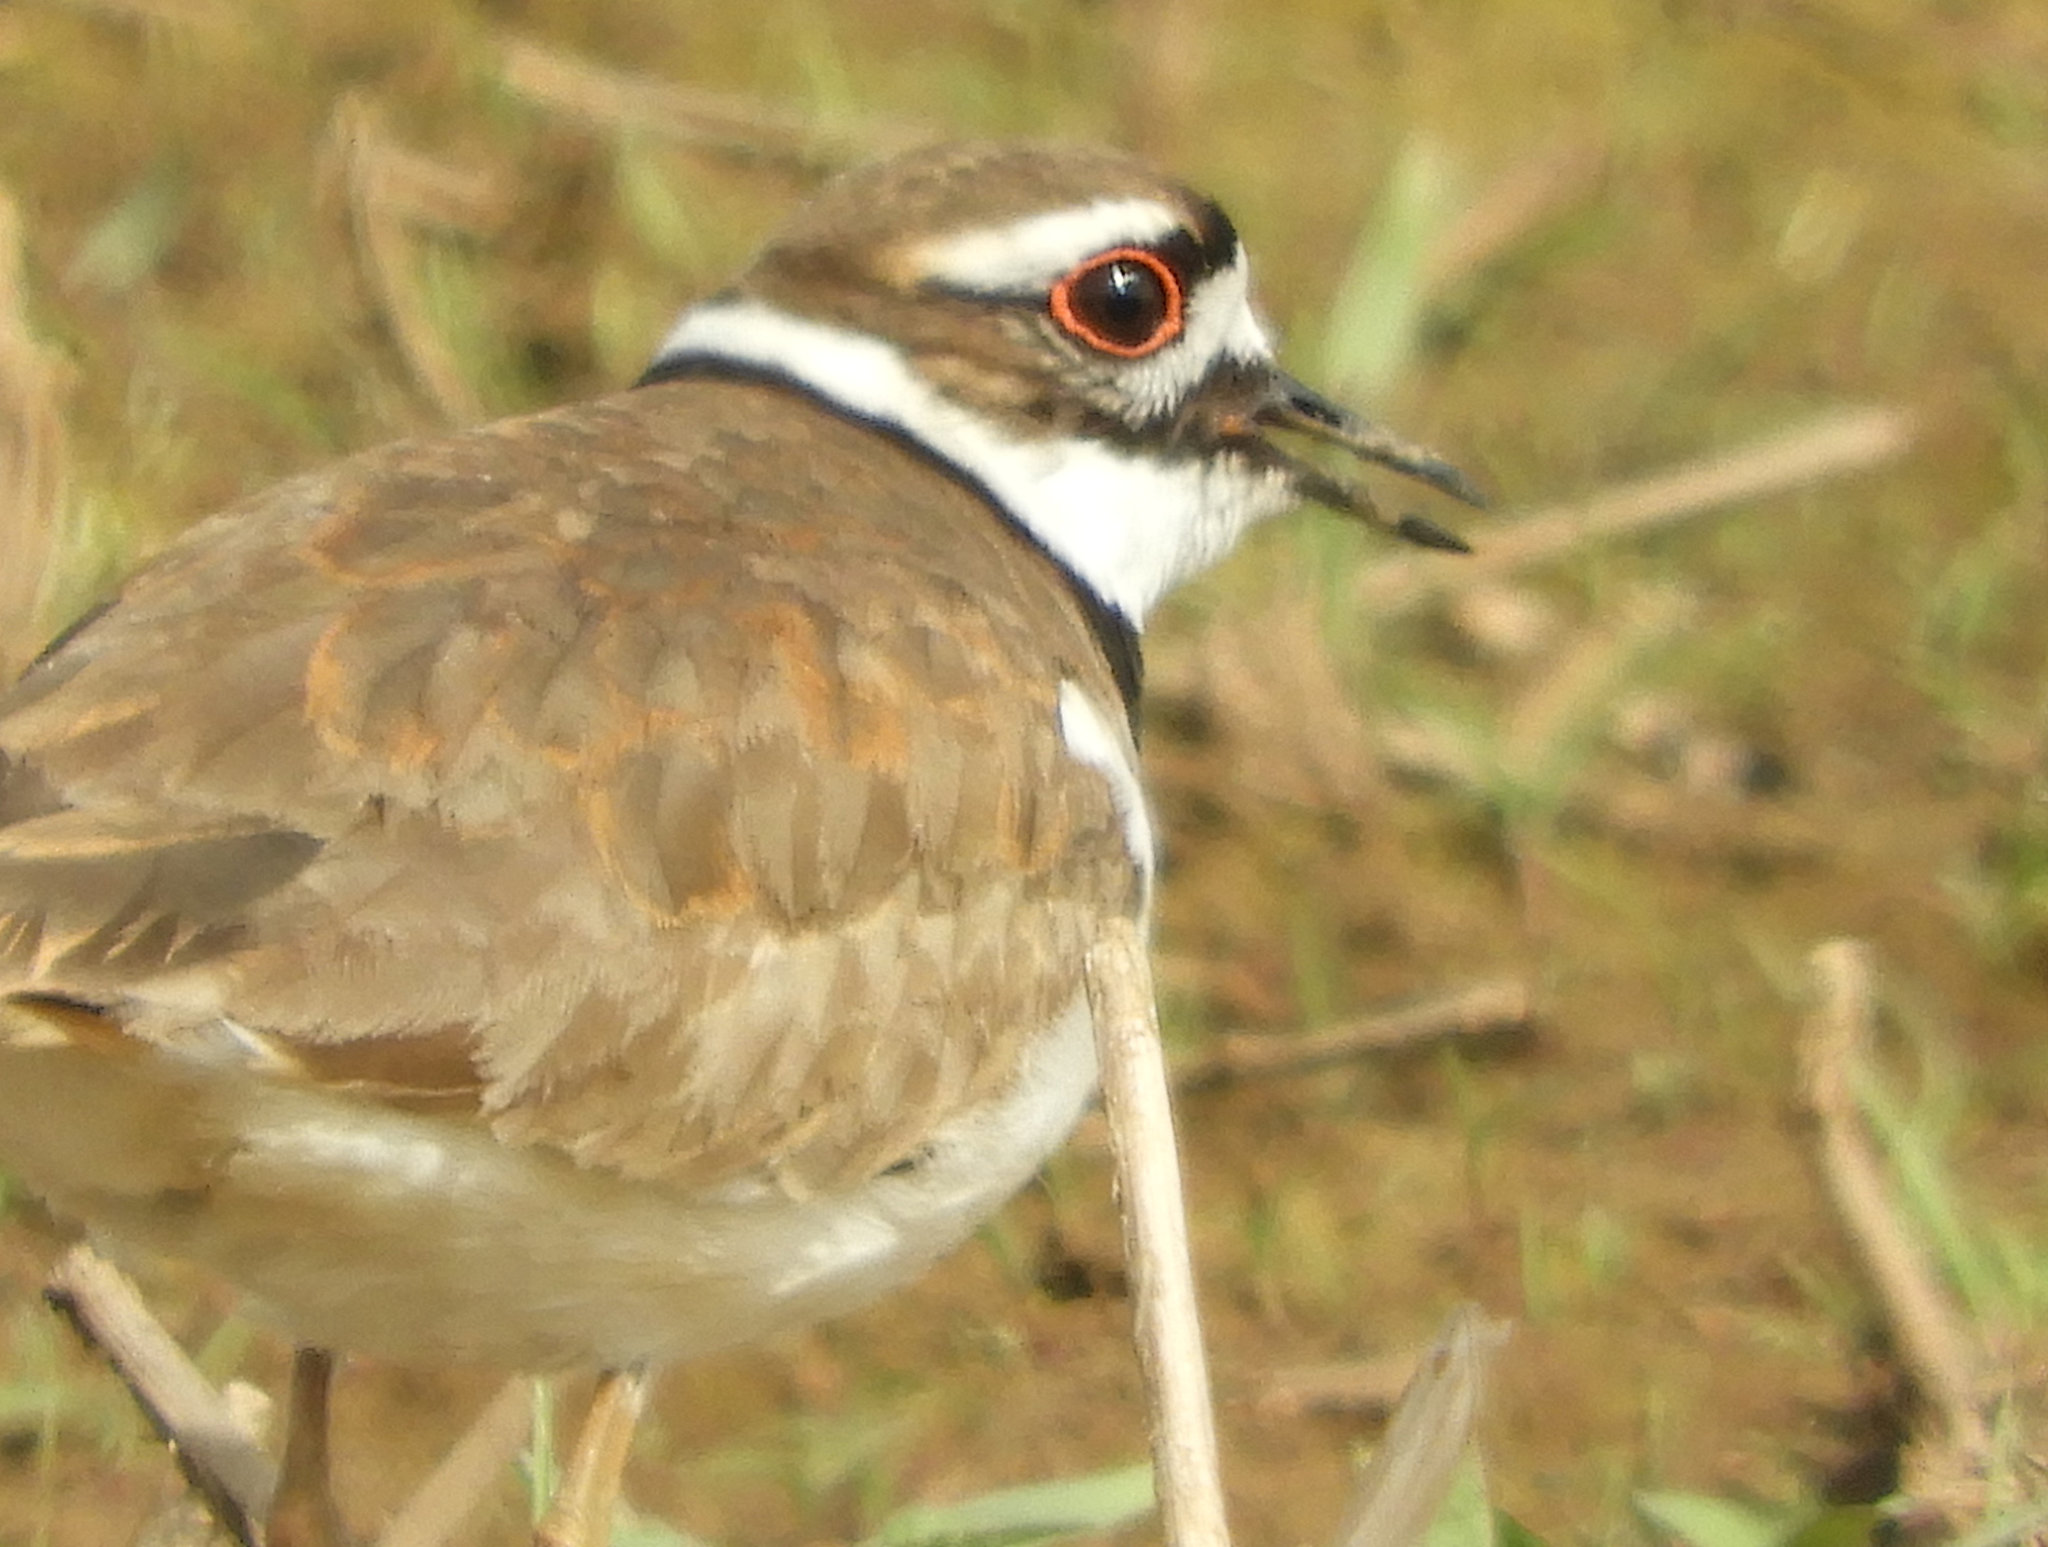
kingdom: Animalia
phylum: Chordata
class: Aves
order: Charadriiformes
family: Charadriidae
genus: Charadrius
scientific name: Charadrius vociferus
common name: Killdeer
